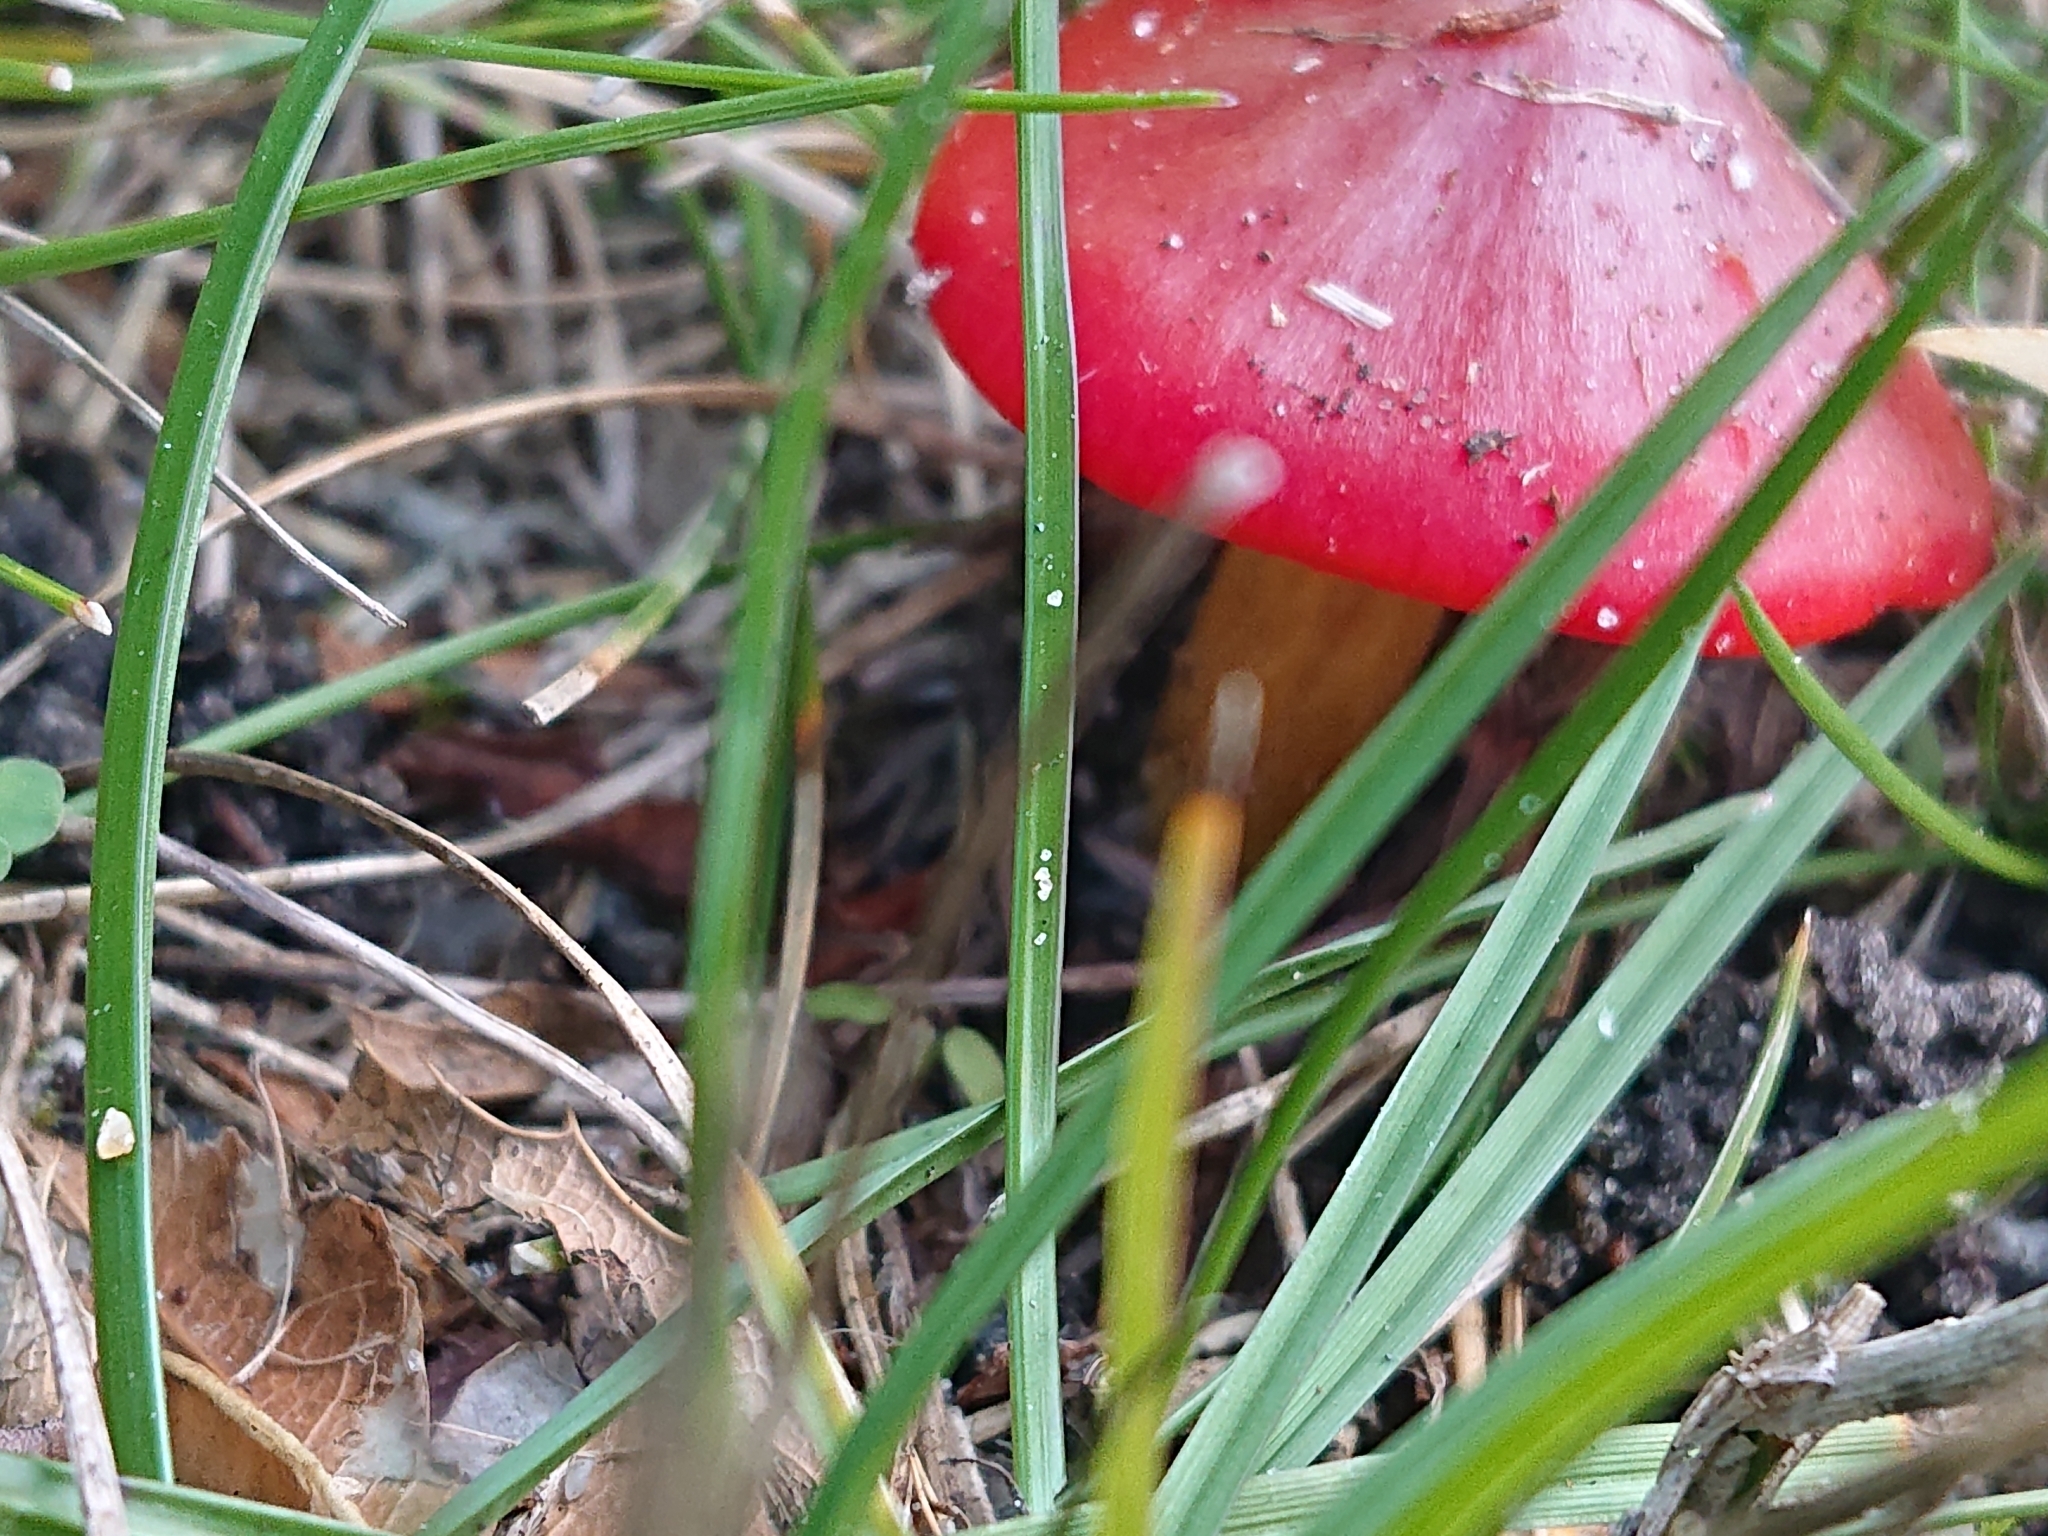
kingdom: Fungi
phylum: Basidiomycota
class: Agaricomycetes
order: Agaricales
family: Hygrophoraceae
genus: Hygrocybe
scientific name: Hygrocybe coccinea
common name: Scarlet hood
